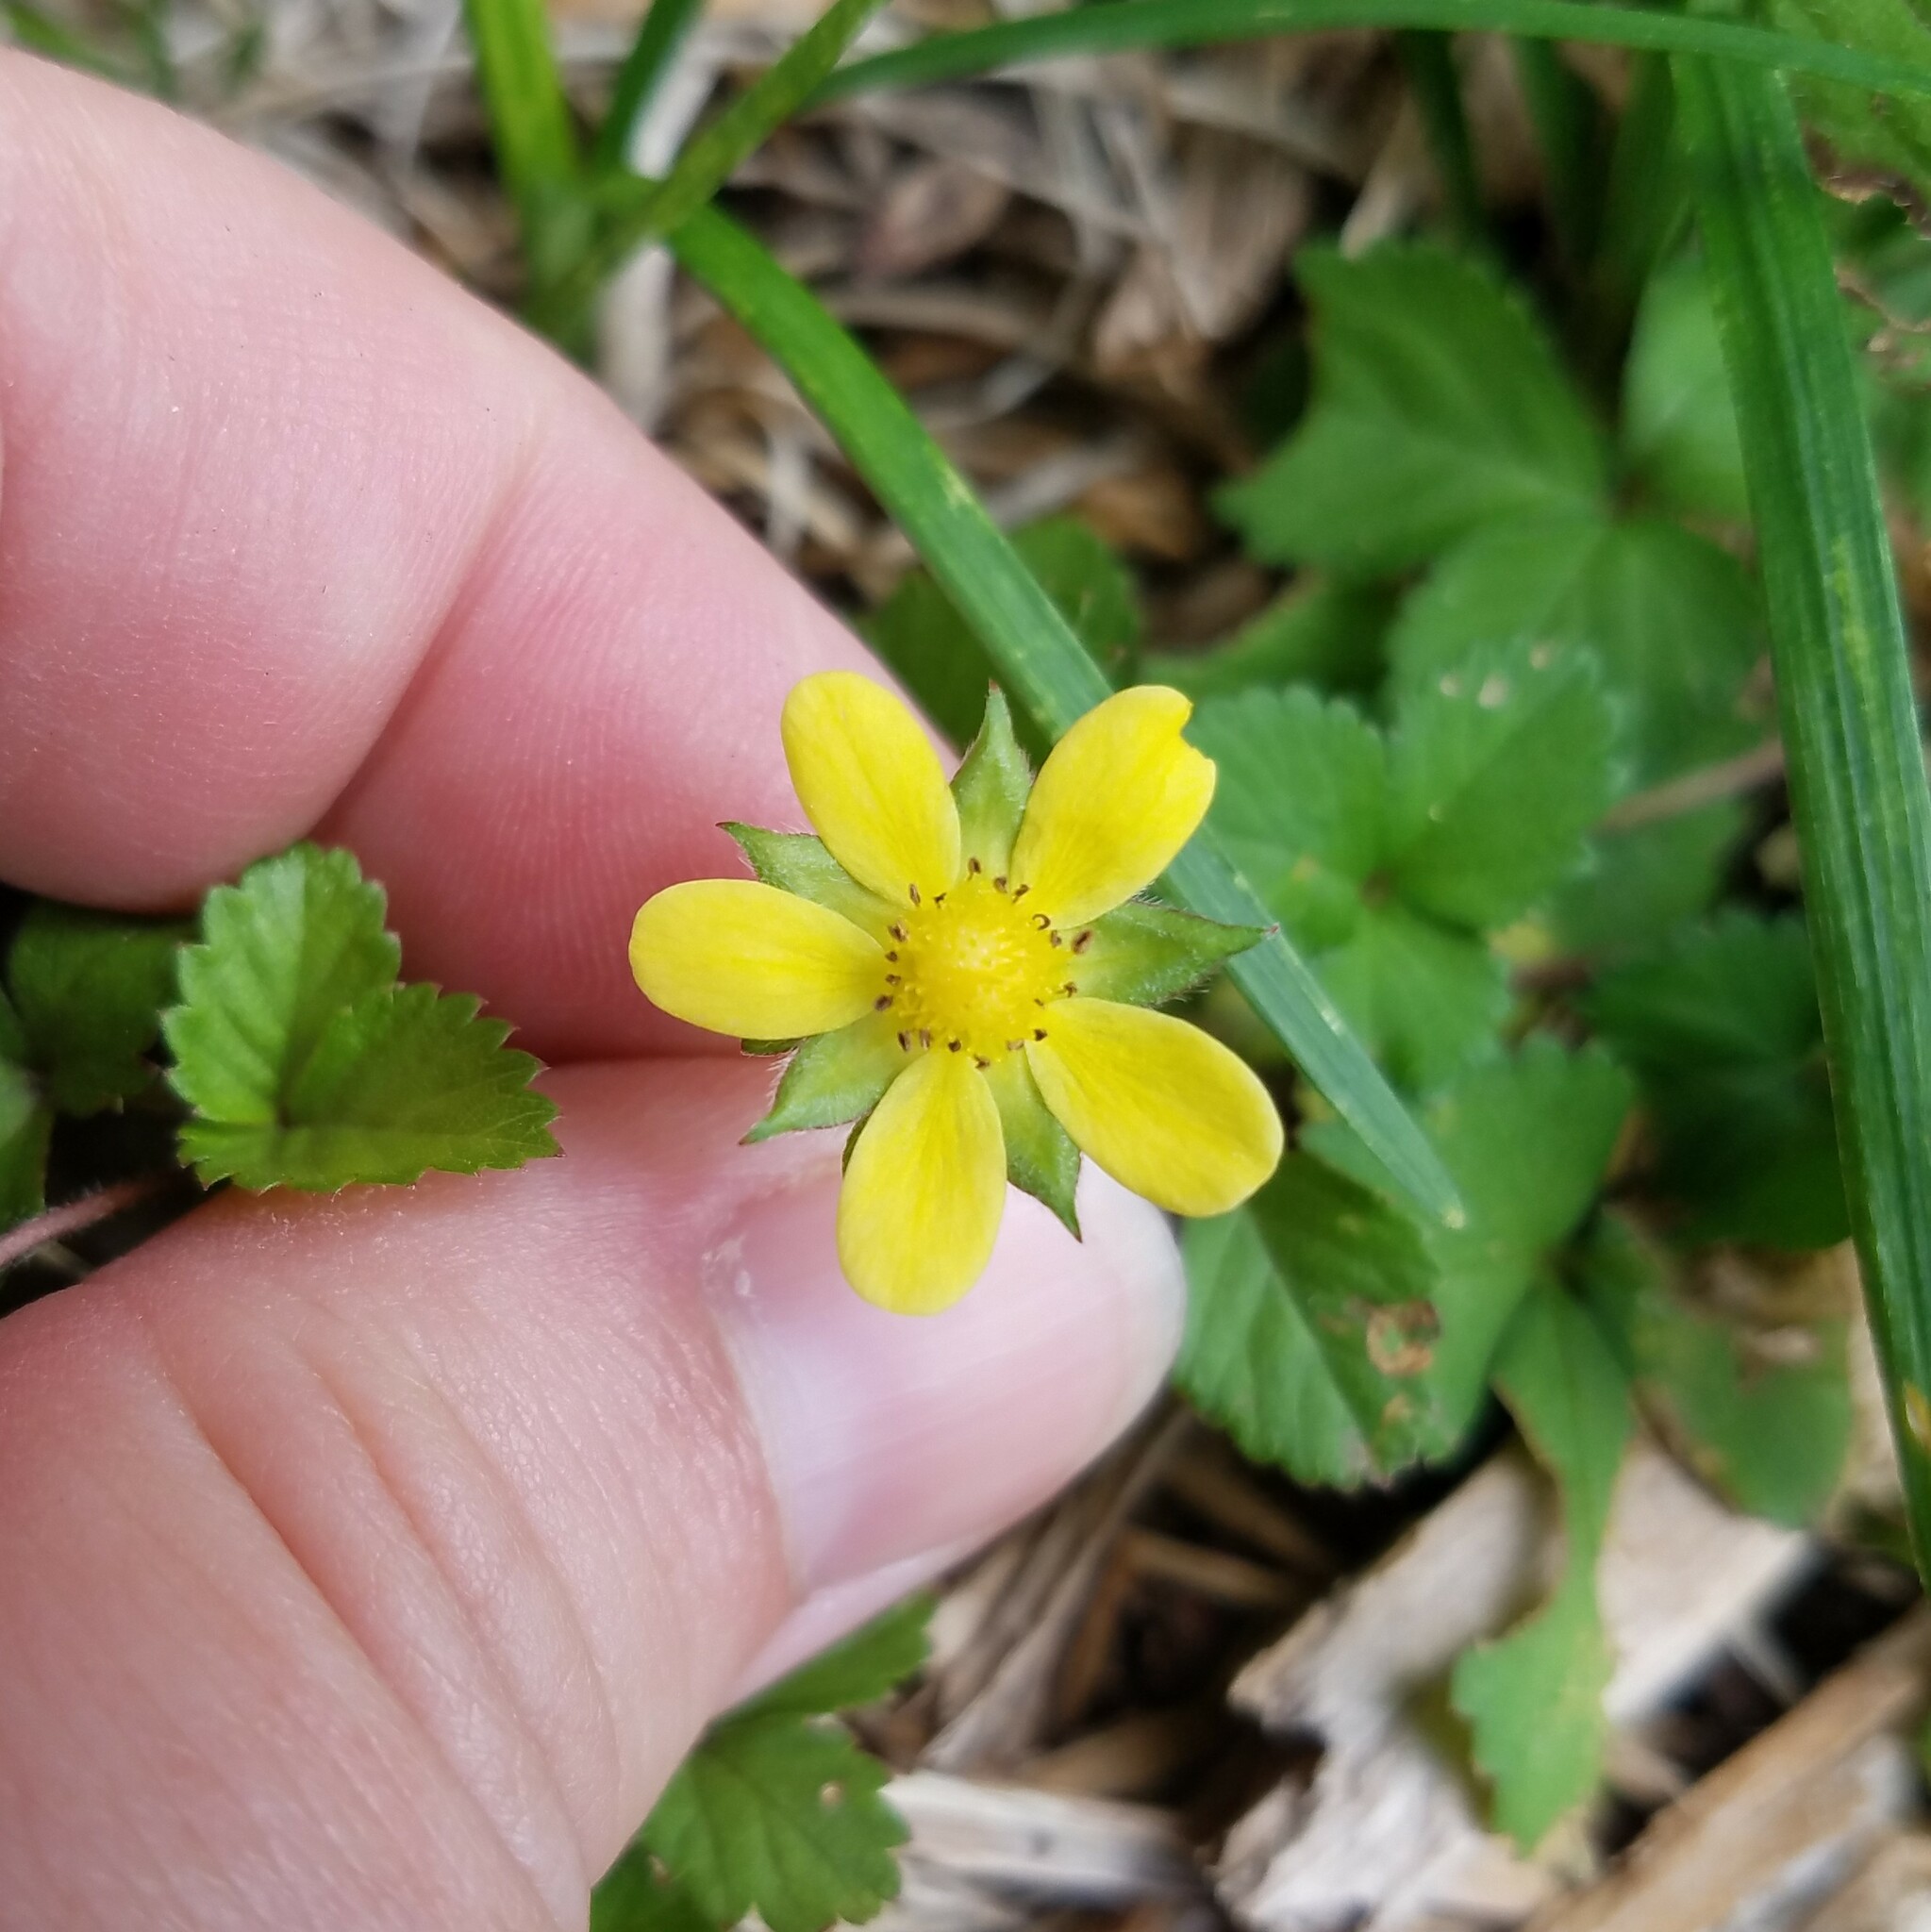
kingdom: Plantae
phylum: Tracheophyta
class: Magnoliopsida
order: Rosales
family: Rosaceae
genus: Potentilla
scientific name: Potentilla indica
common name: Yellow-flowered strawberry
